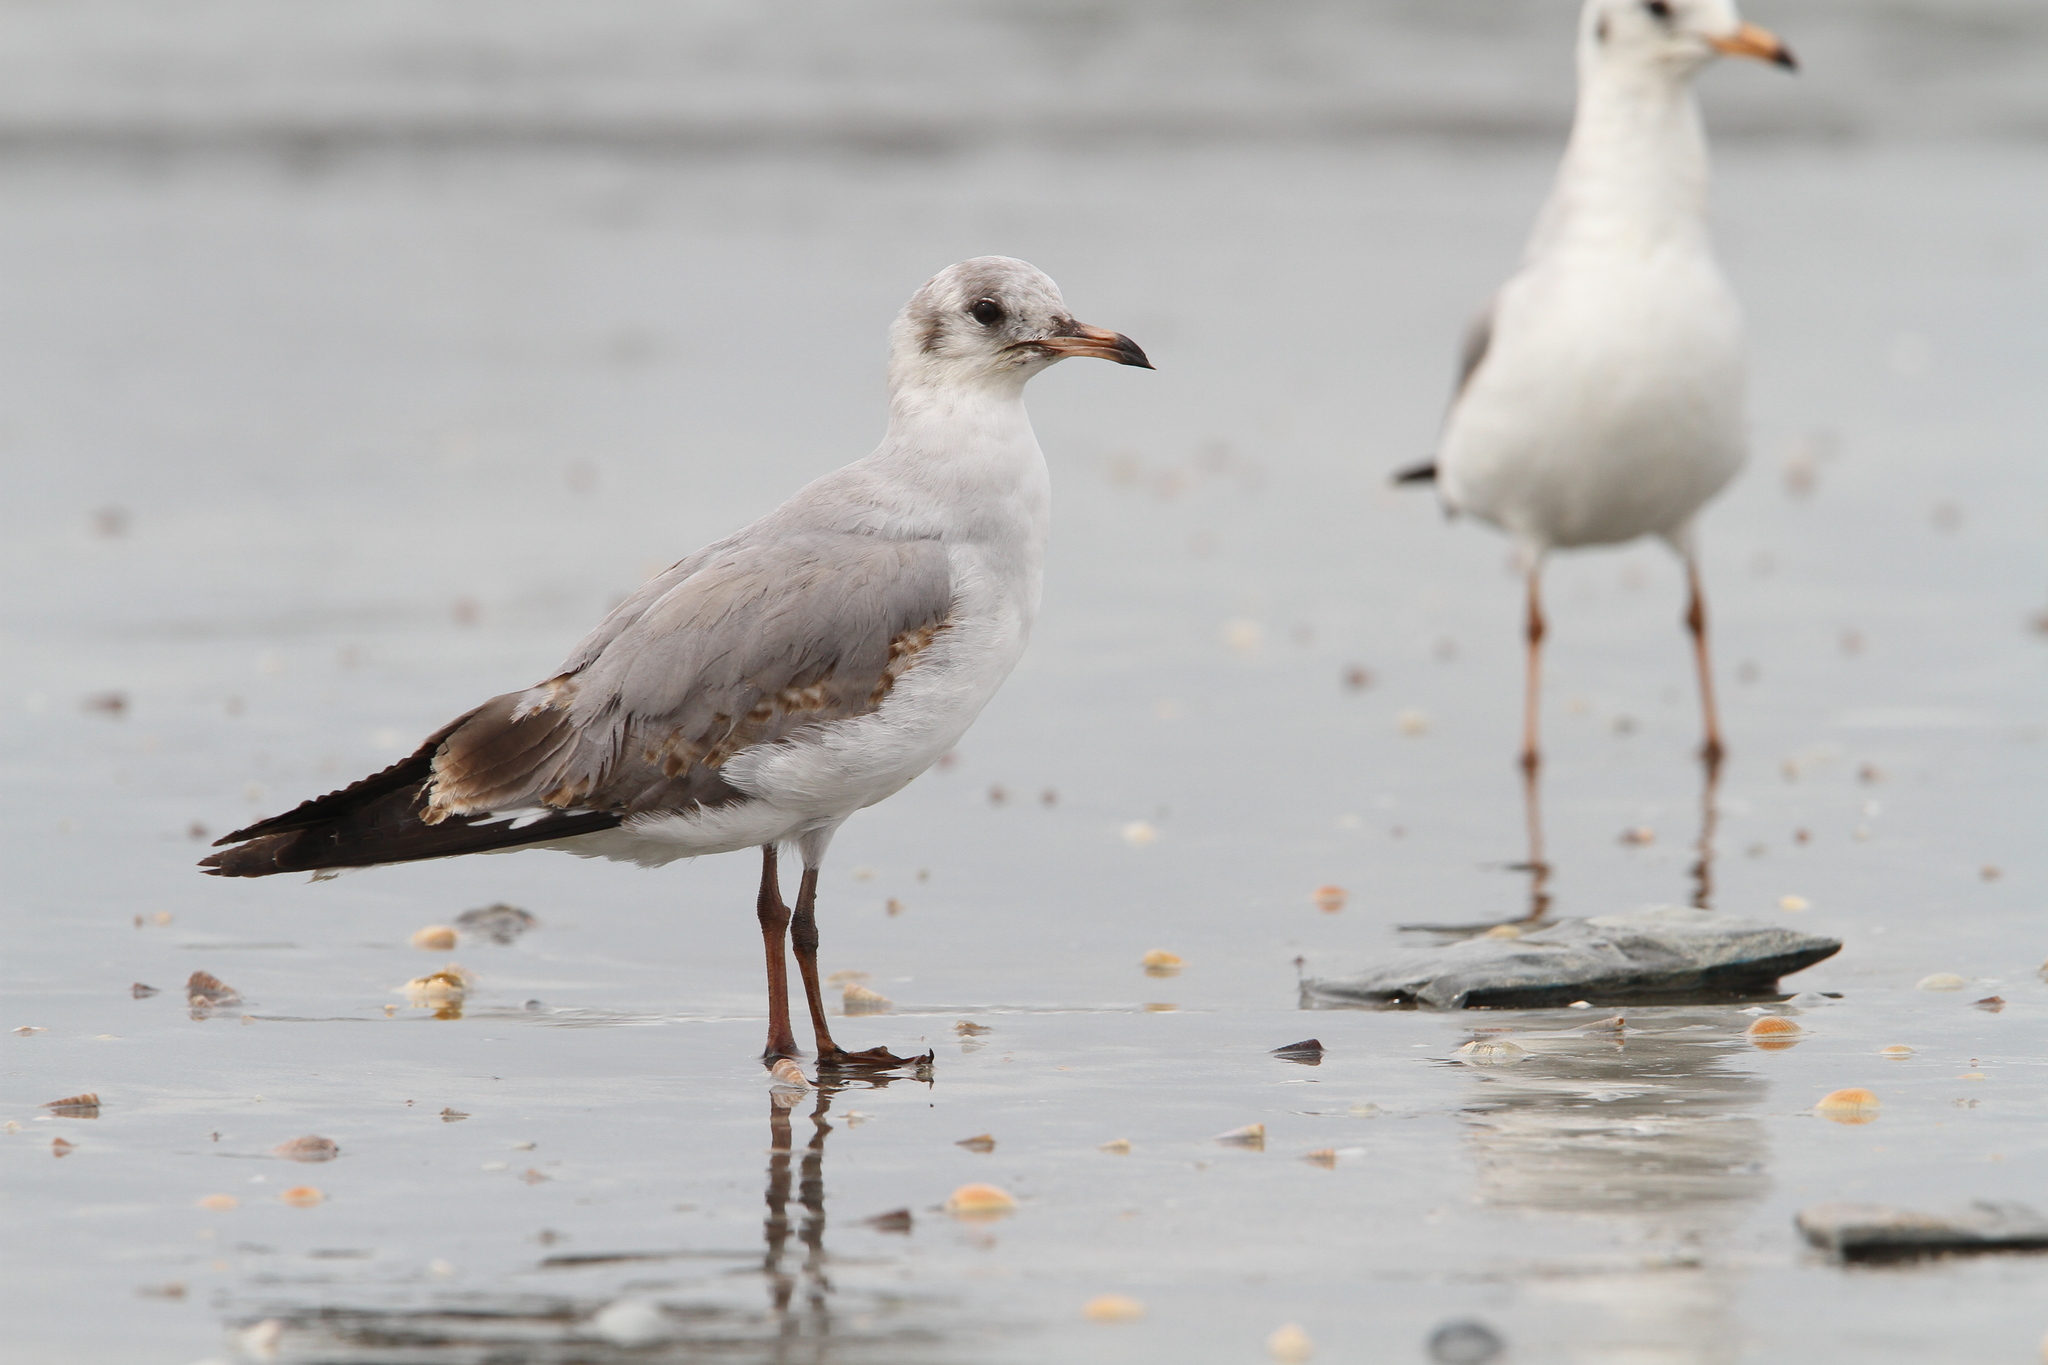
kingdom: Animalia
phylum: Chordata
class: Aves
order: Charadriiformes
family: Laridae
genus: Chroicocephalus
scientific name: Chroicocephalus cirrocephalus
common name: Grey-headed gull
